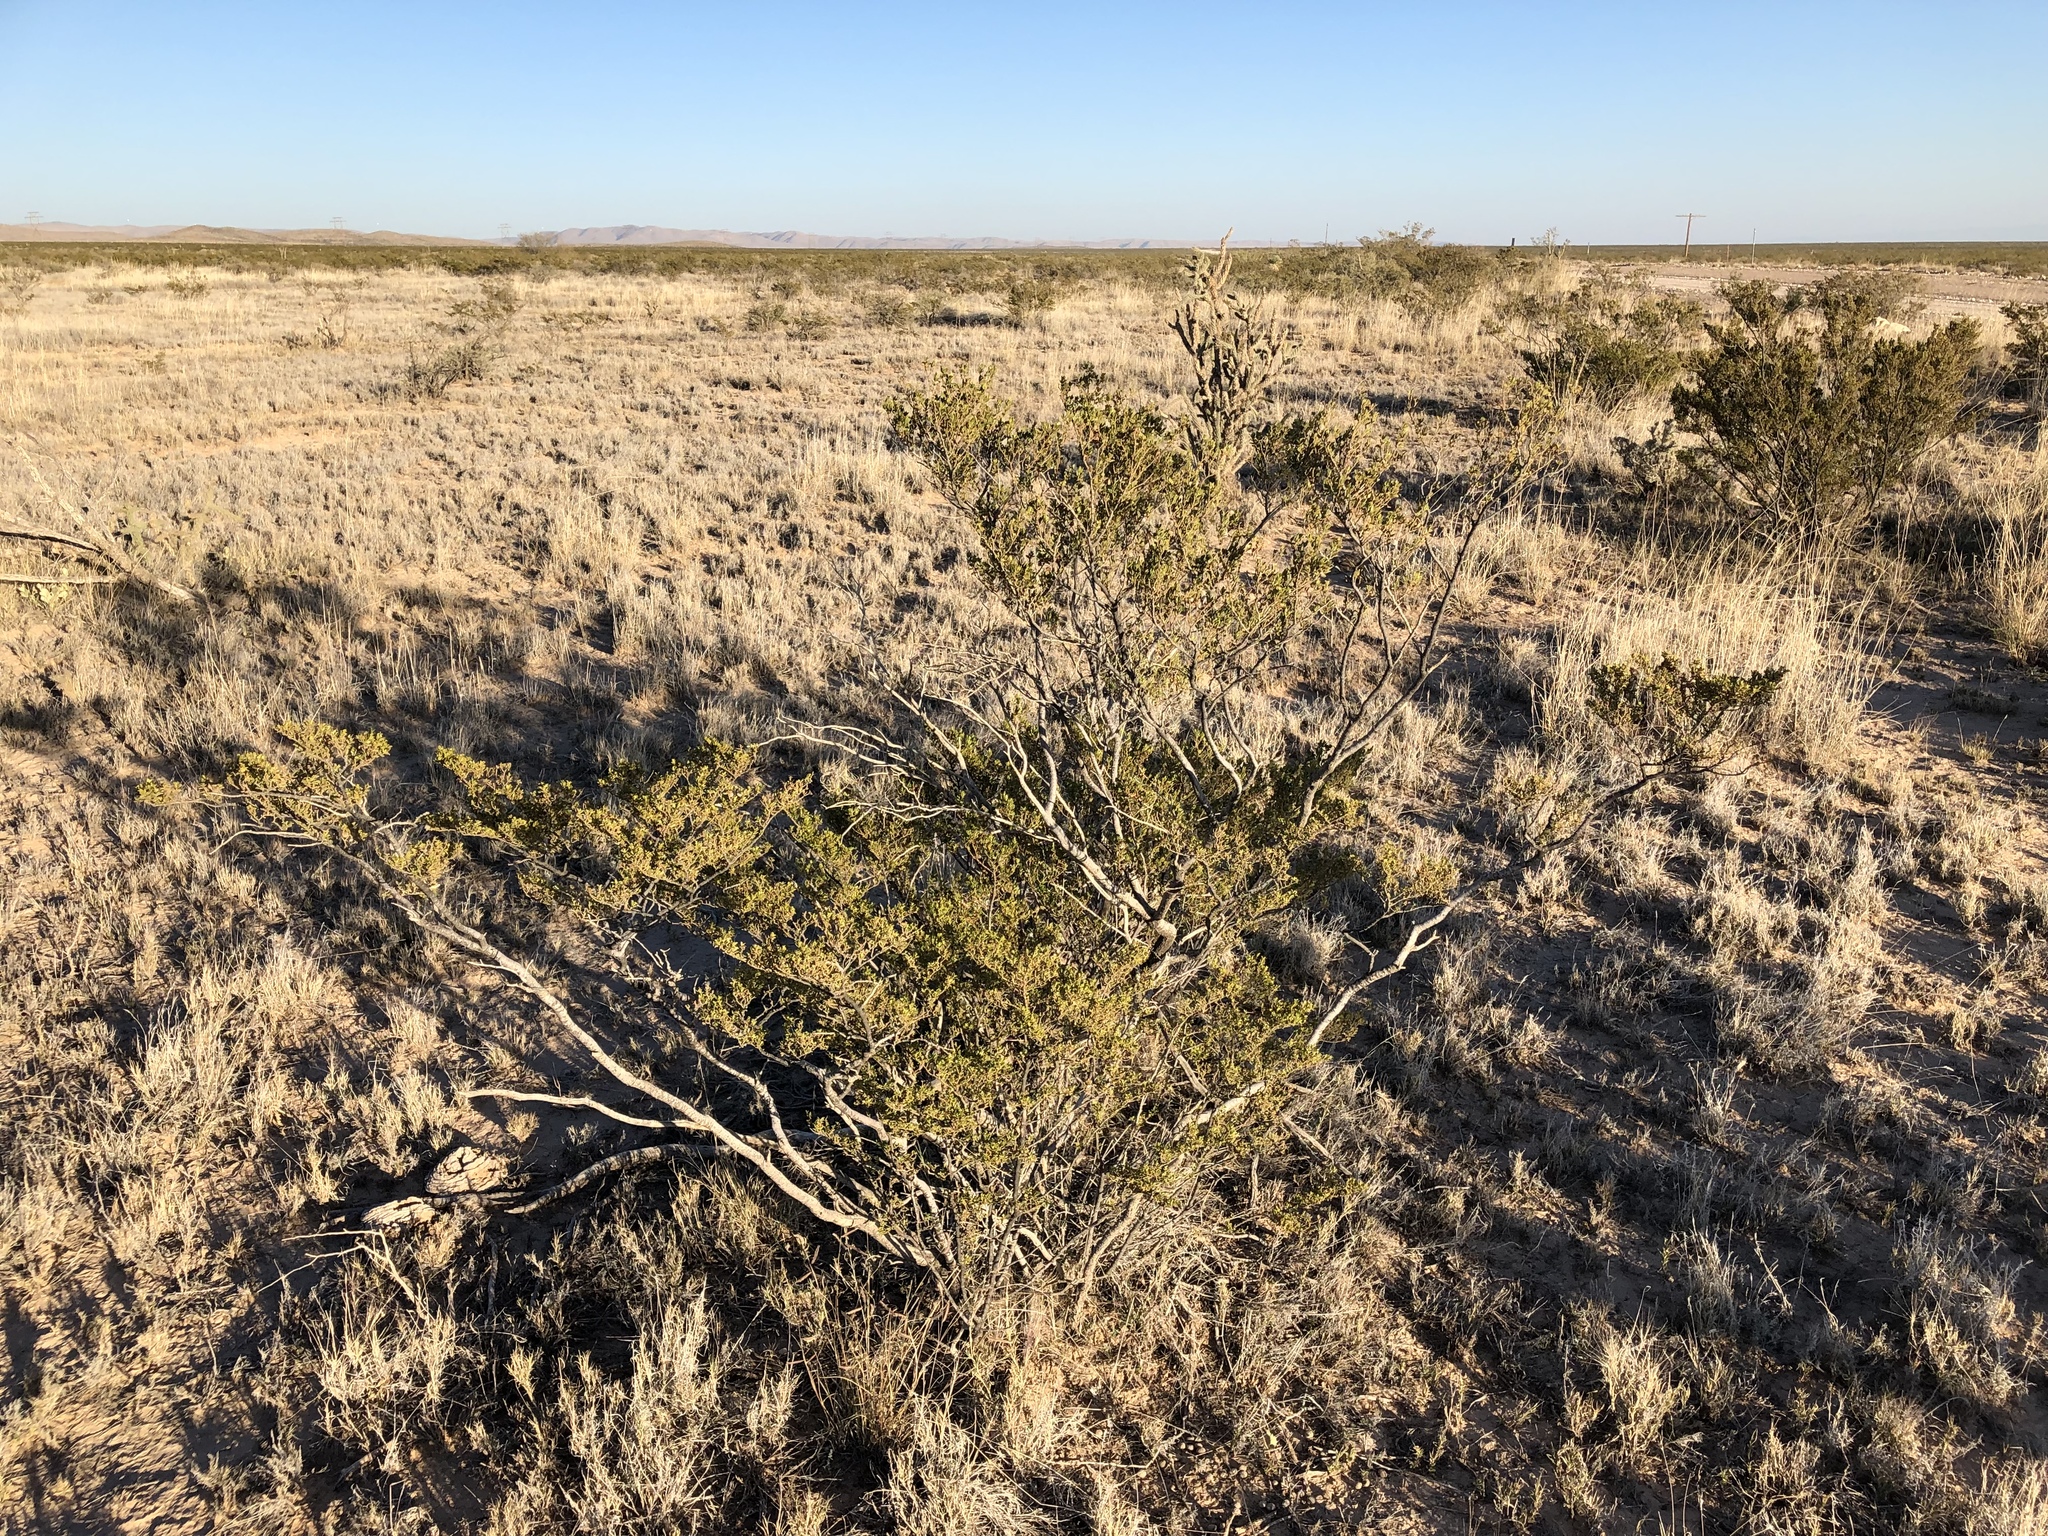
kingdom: Plantae
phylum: Tracheophyta
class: Magnoliopsida
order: Zygophyllales
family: Zygophyllaceae
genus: Larrea
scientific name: Larrea tridentata
